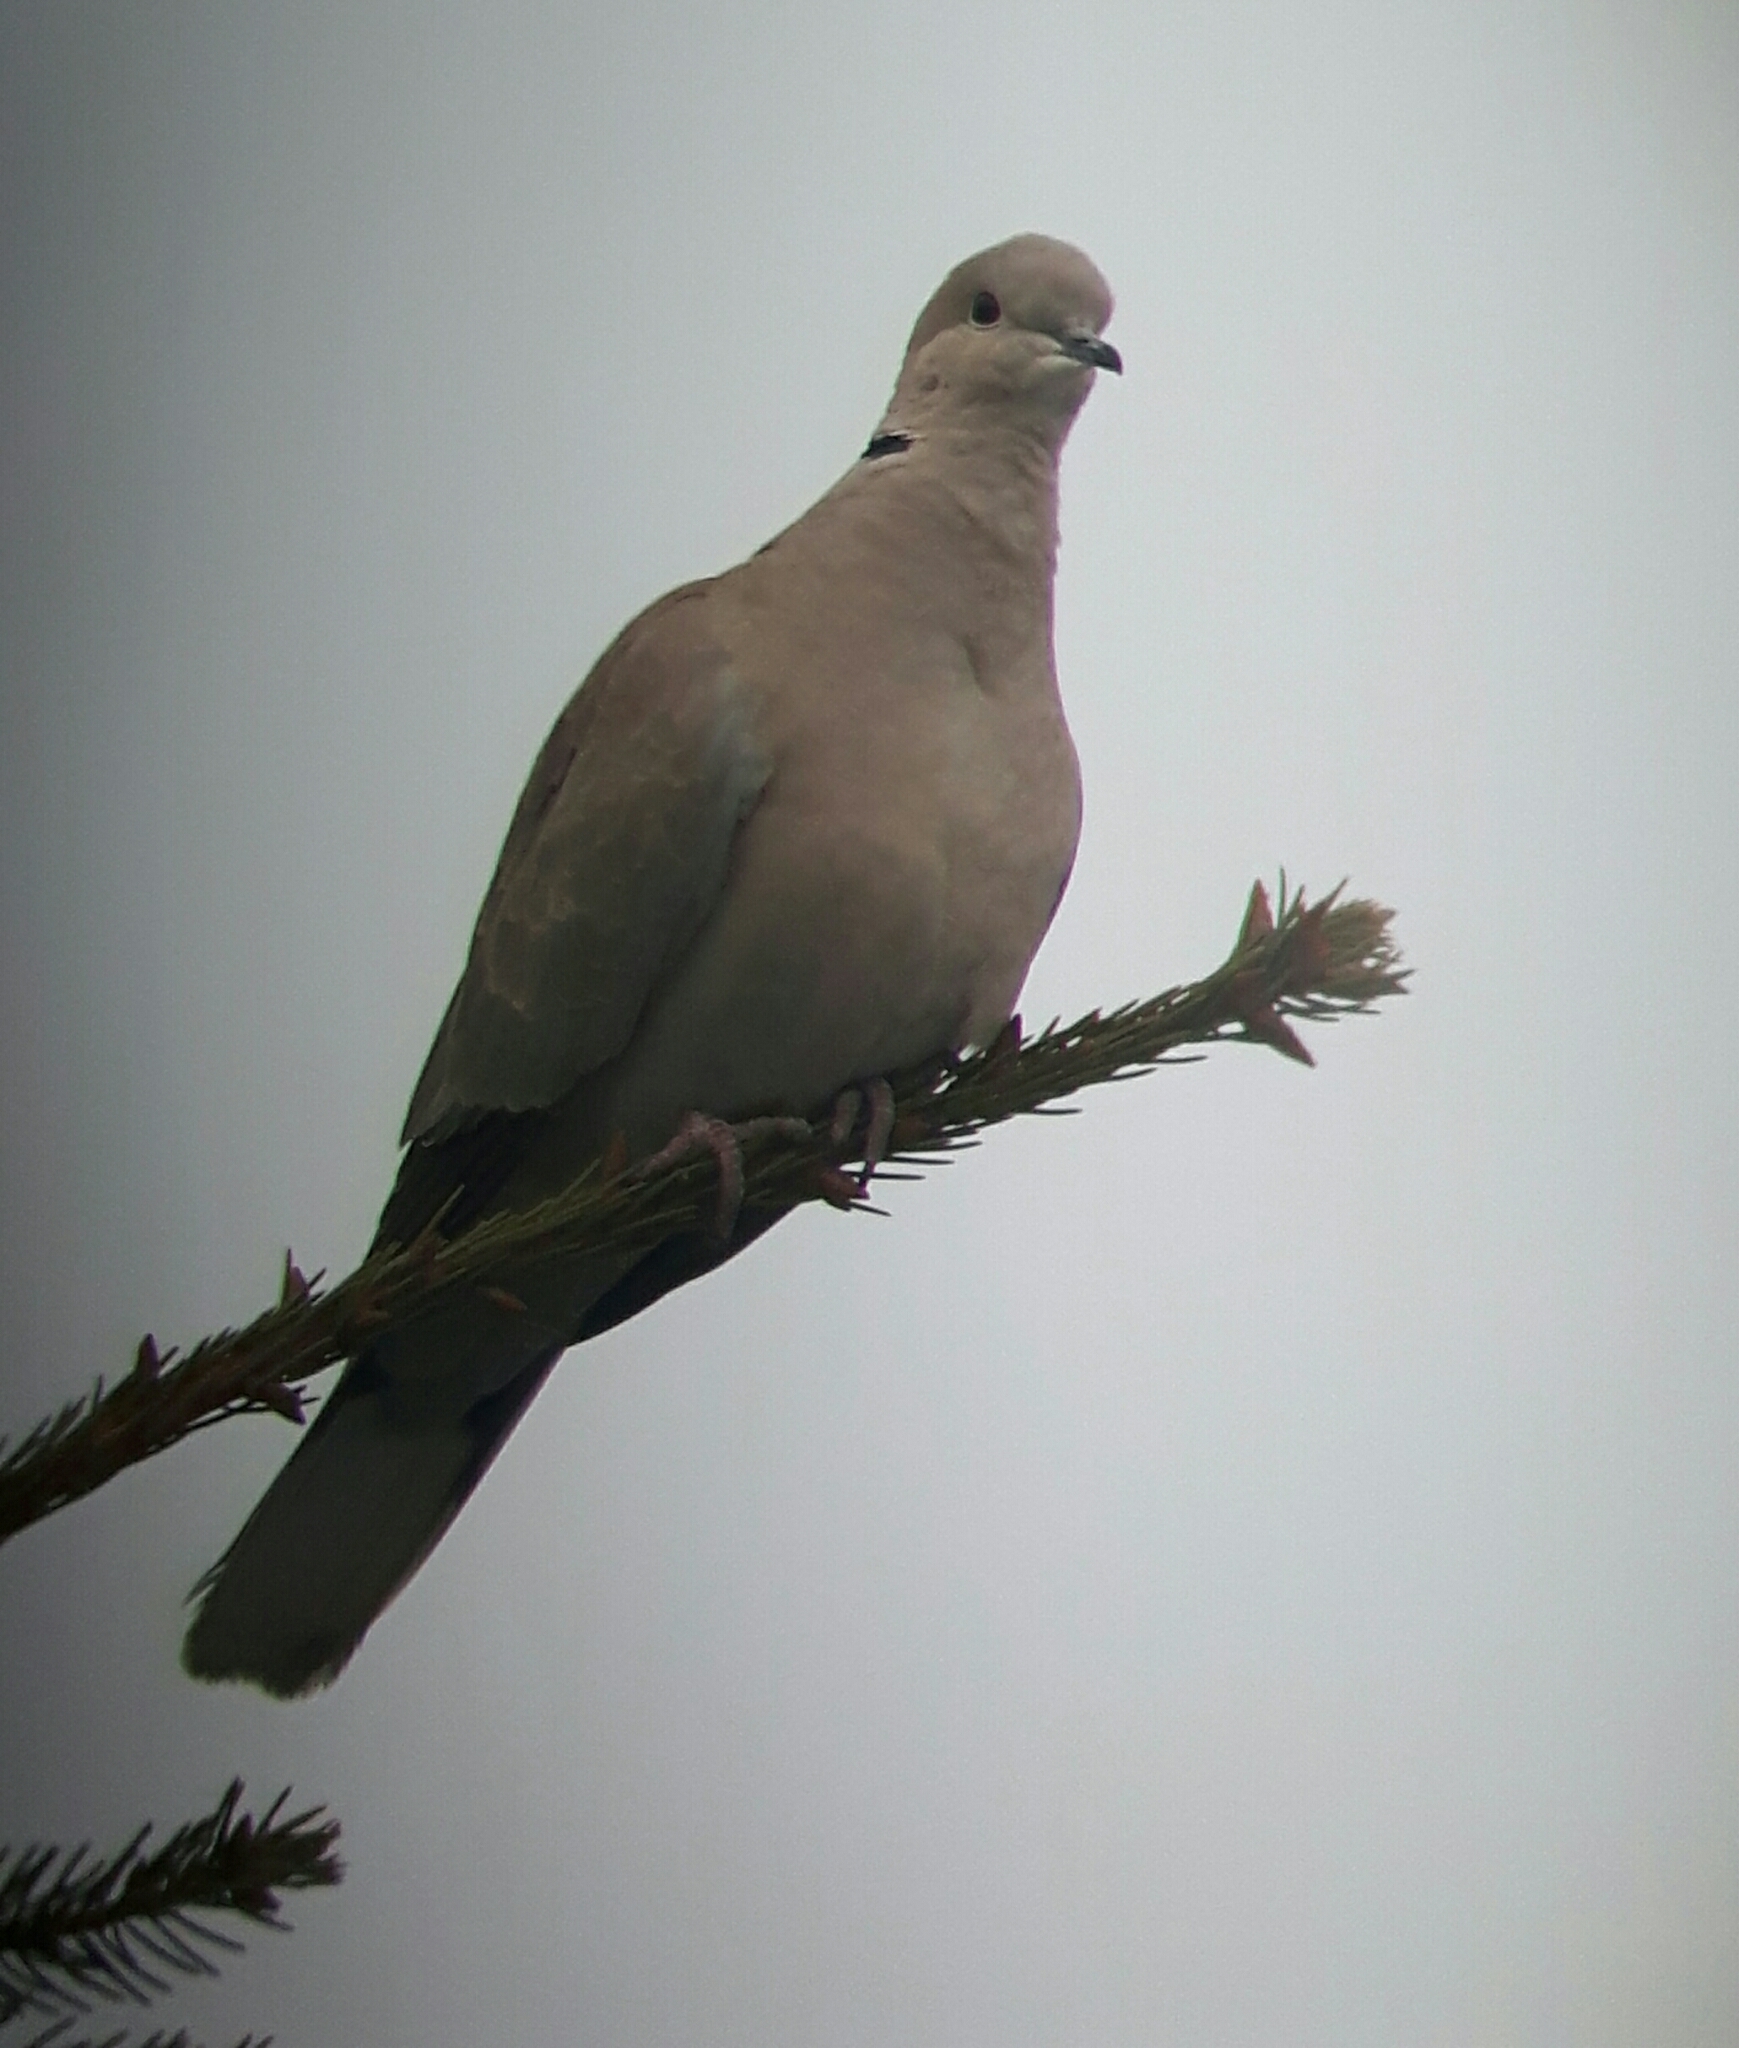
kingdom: Animalia
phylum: Chordata
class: Aves
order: Columbiformes
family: Columbidae
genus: Streptopelia
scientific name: Streptopelia decaocto
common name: Eurasian collared dove
